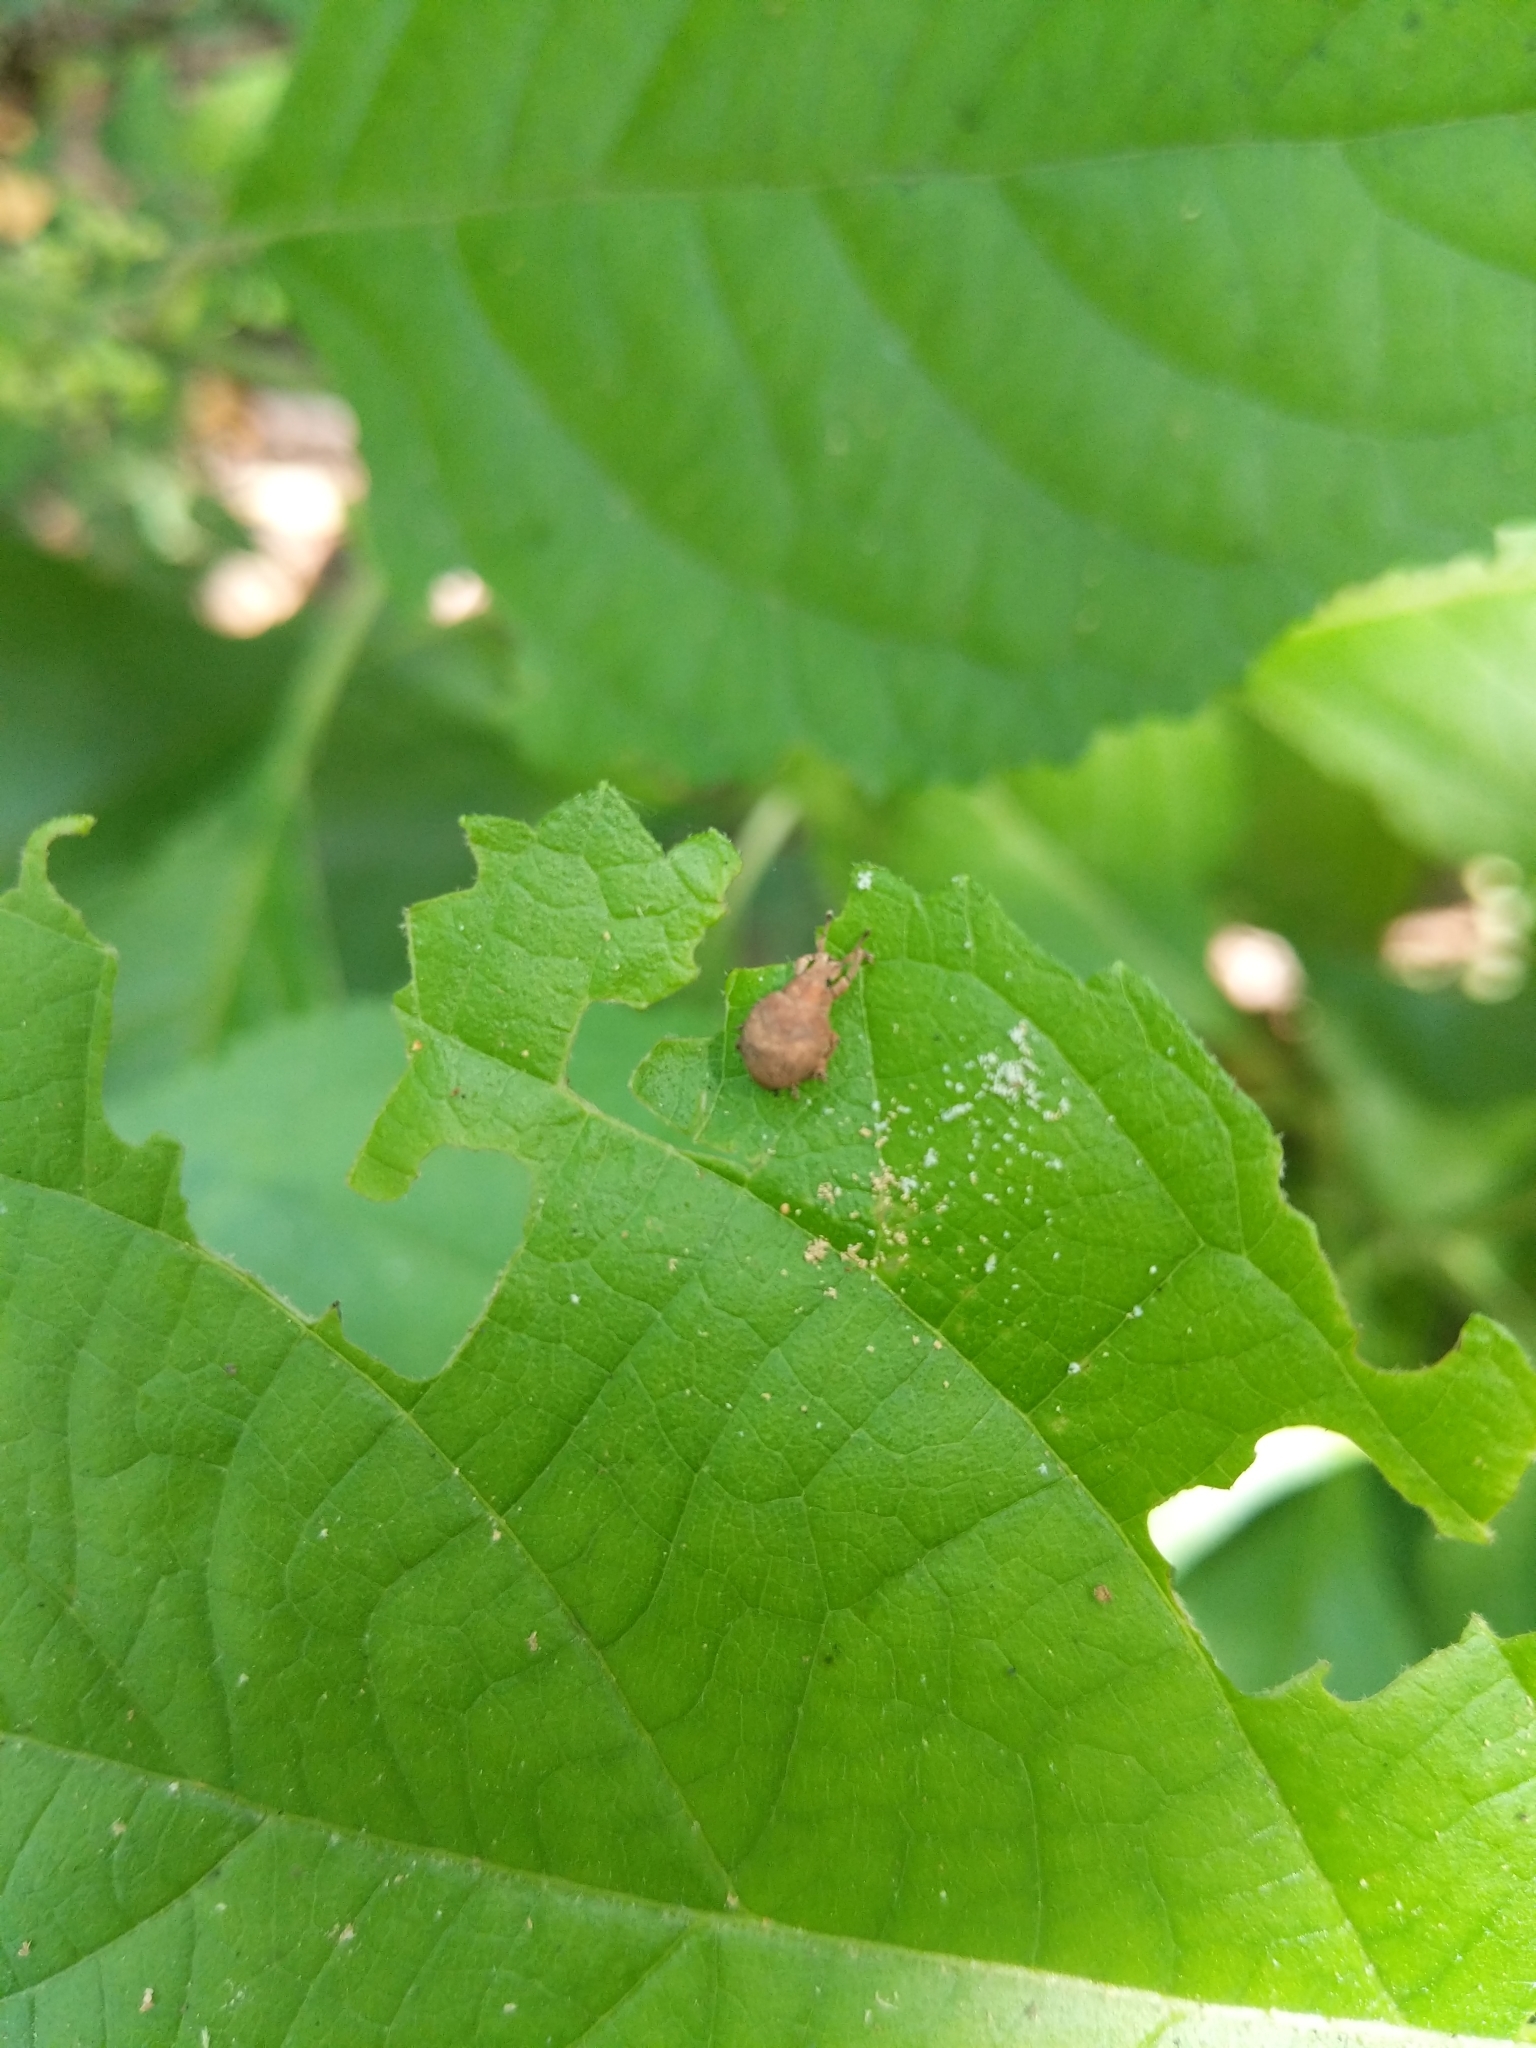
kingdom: Animalia
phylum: Arthropoda
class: Insecta
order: Coleoptera
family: Curculionidae
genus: Pseudocneorhinus
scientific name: Pseudocneorhinus bifasciatus
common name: Two-banded japanese weevil
